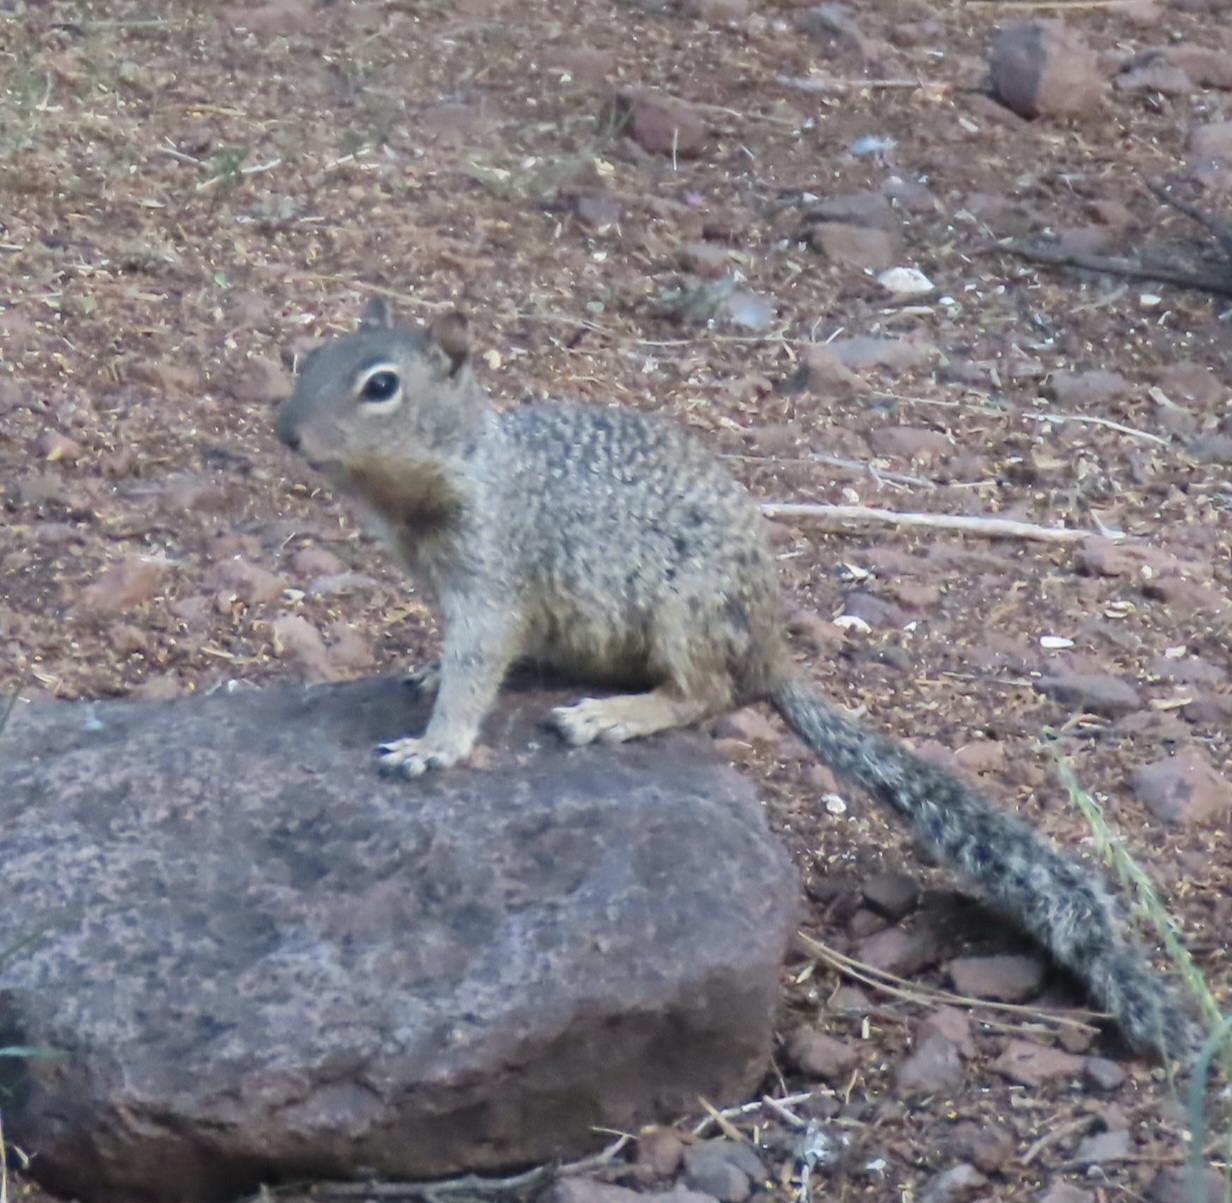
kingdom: Animalia
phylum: Chordata
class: Mammalia
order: Rodentia
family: Sciuridae
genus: Otospermophilus
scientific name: Otospermophilus variegatus
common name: Rock squirrel
